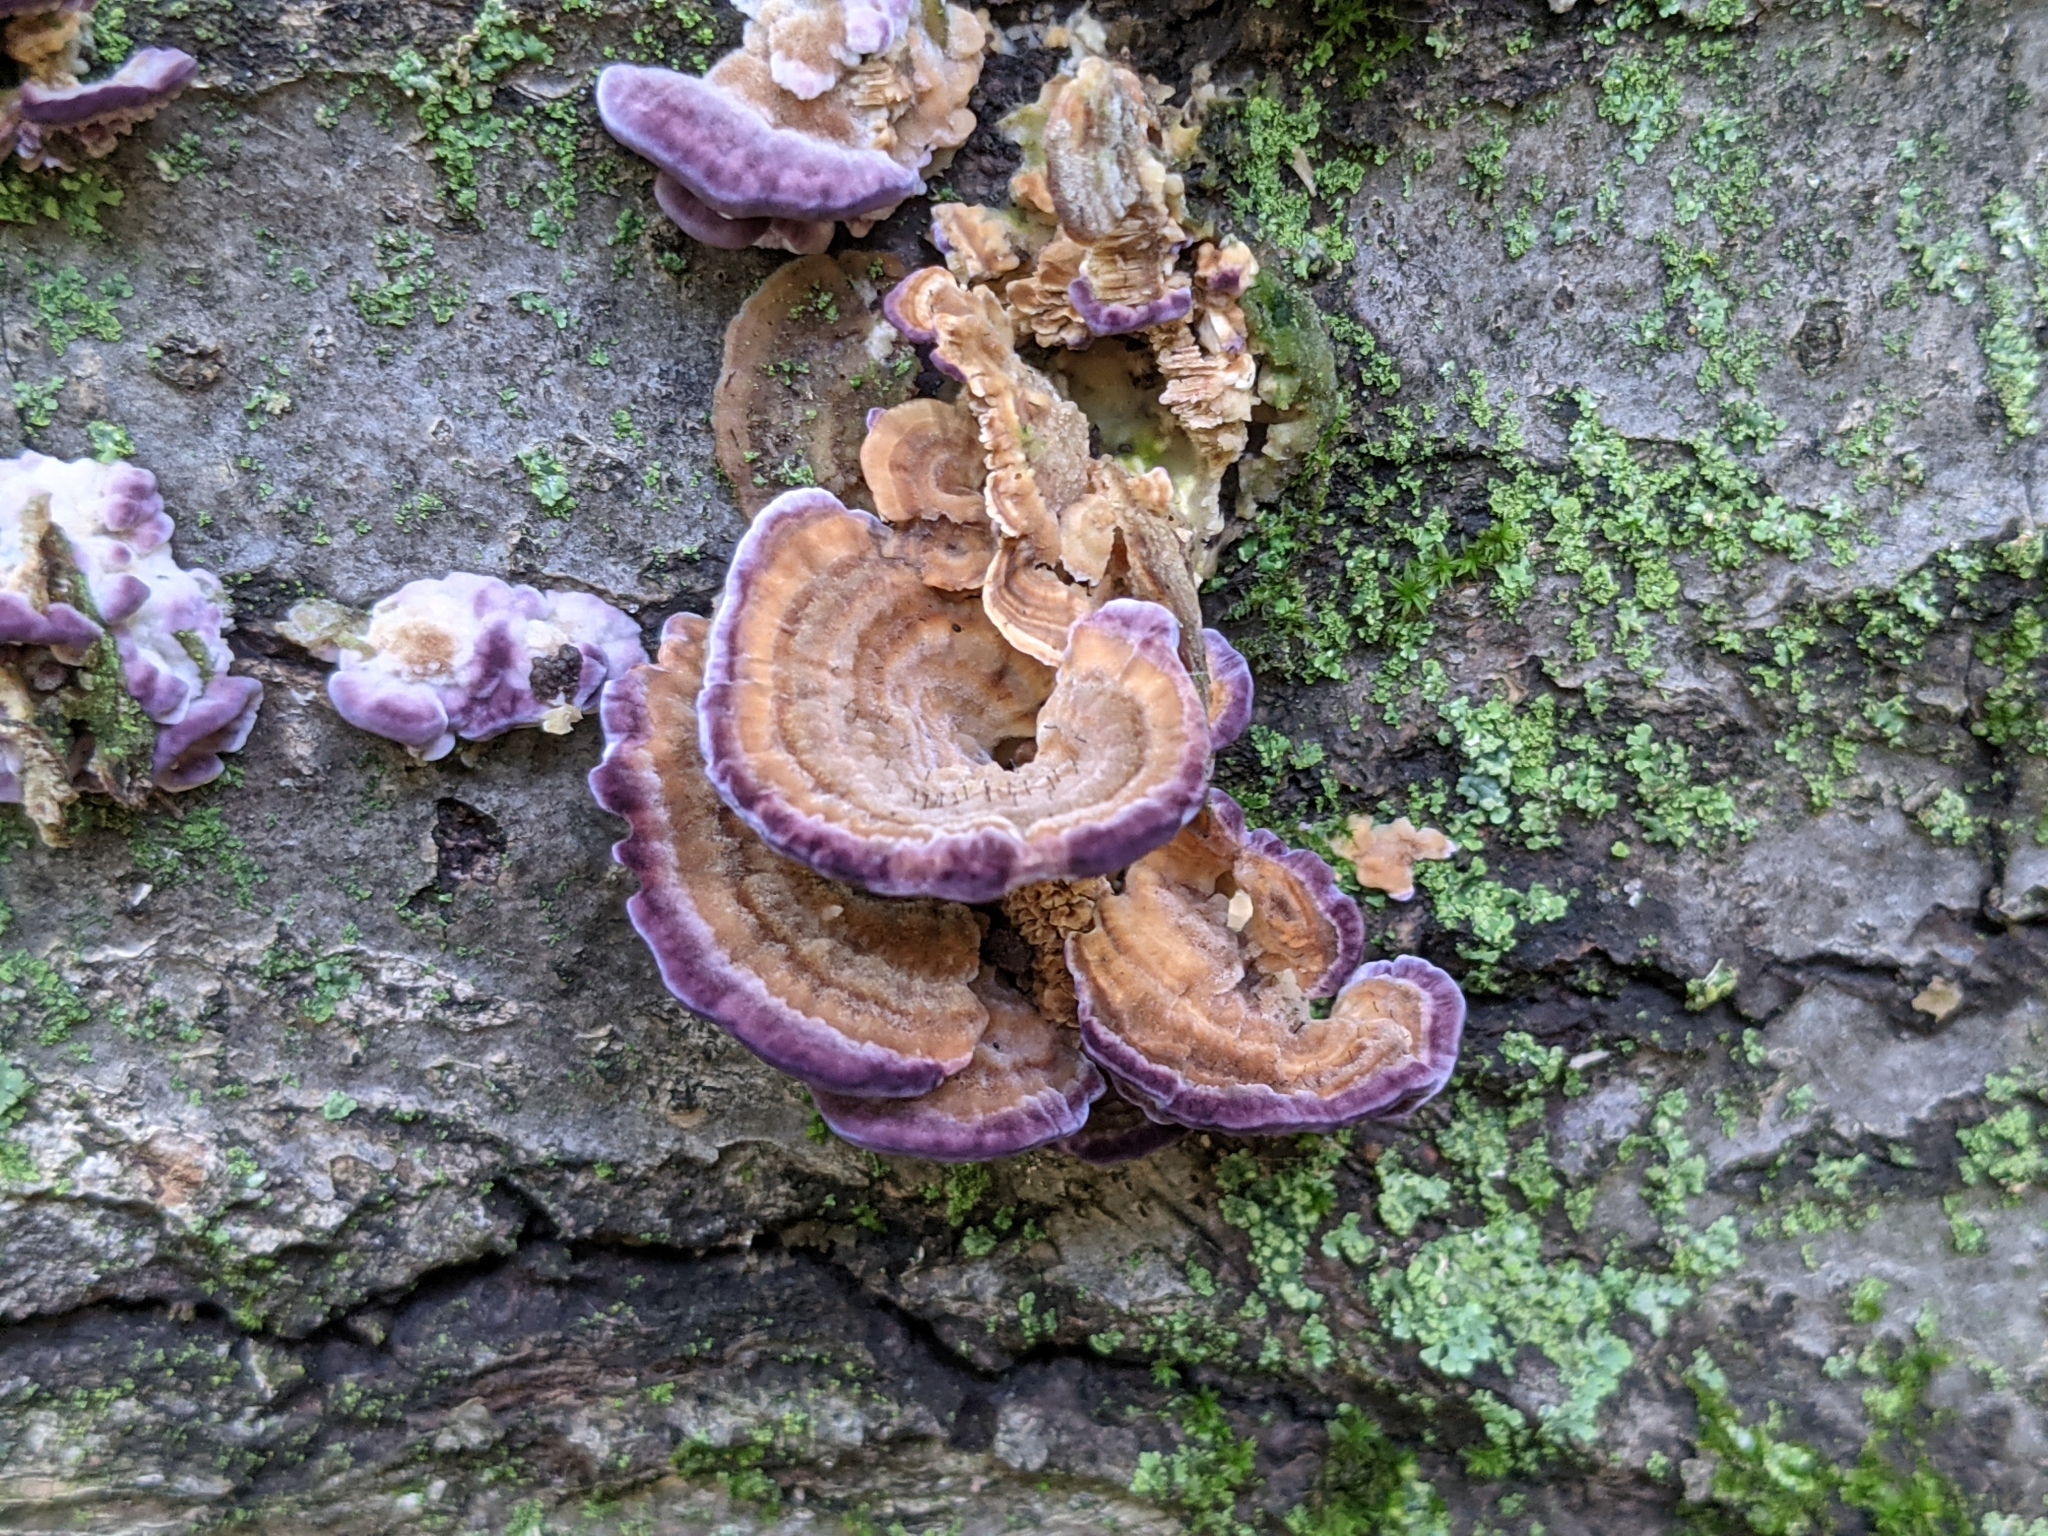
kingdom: Fungi
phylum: Basidiomycota
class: Agaricomycetes
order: Hymenochaetales
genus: Trichaptum
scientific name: Trichaptum biforme
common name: Violet-toothed polypore
